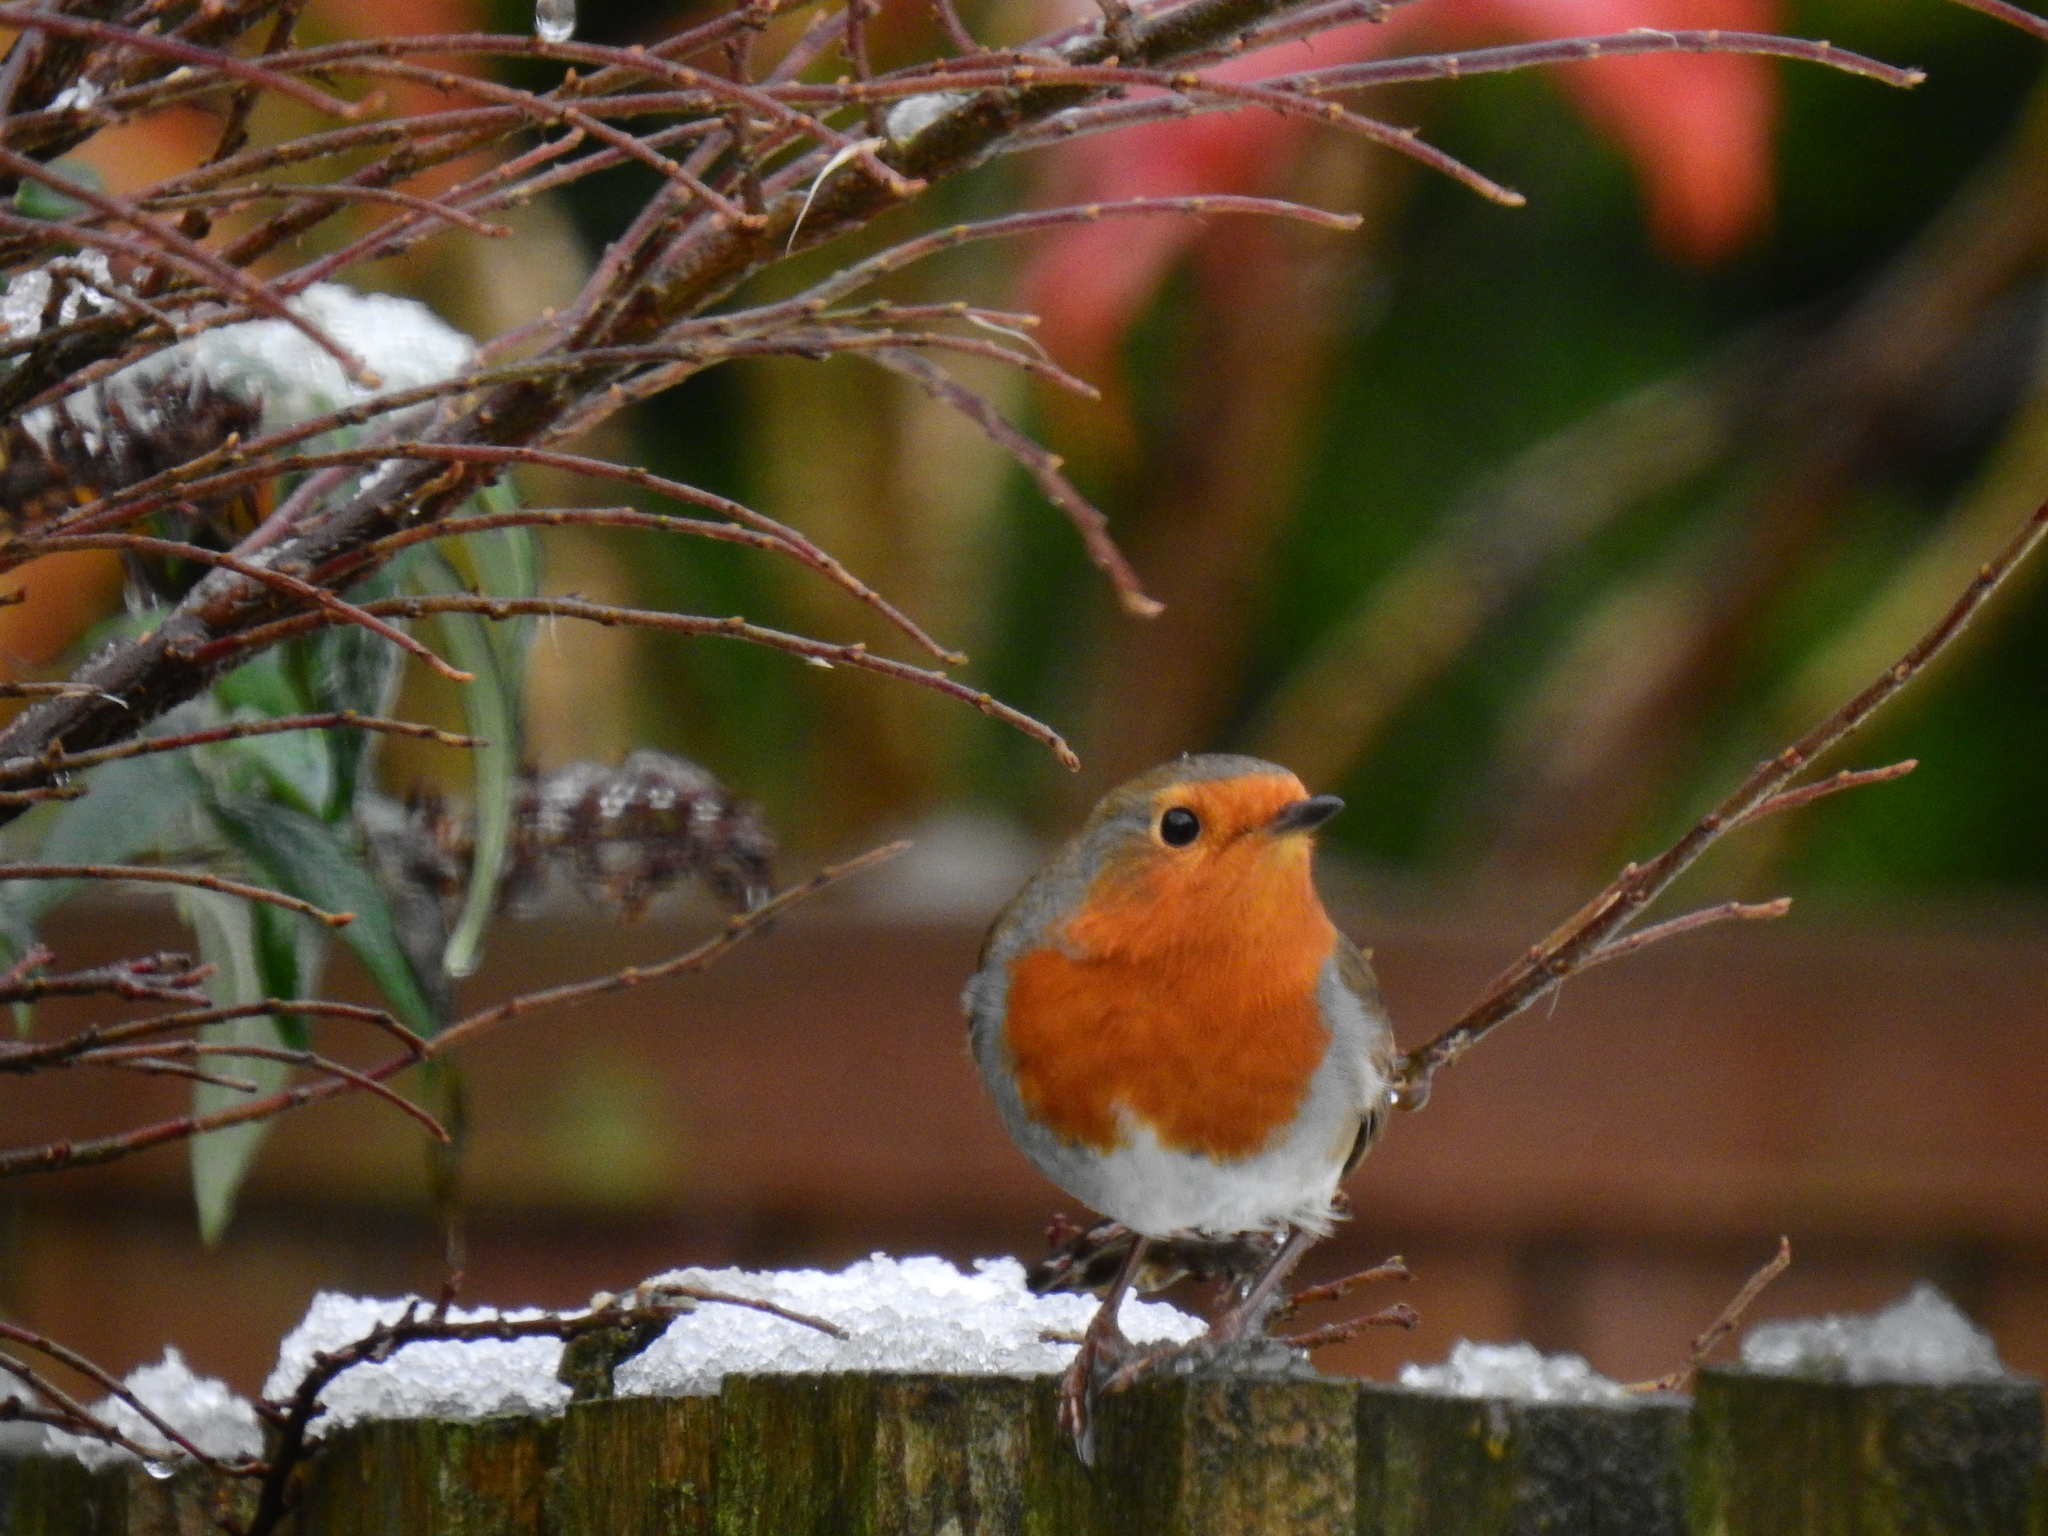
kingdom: Animalia
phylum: Chordata
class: Aves
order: Passeriformes
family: Muscicapidae
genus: Erithacus
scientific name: Erithacus rubecula
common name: European robin
